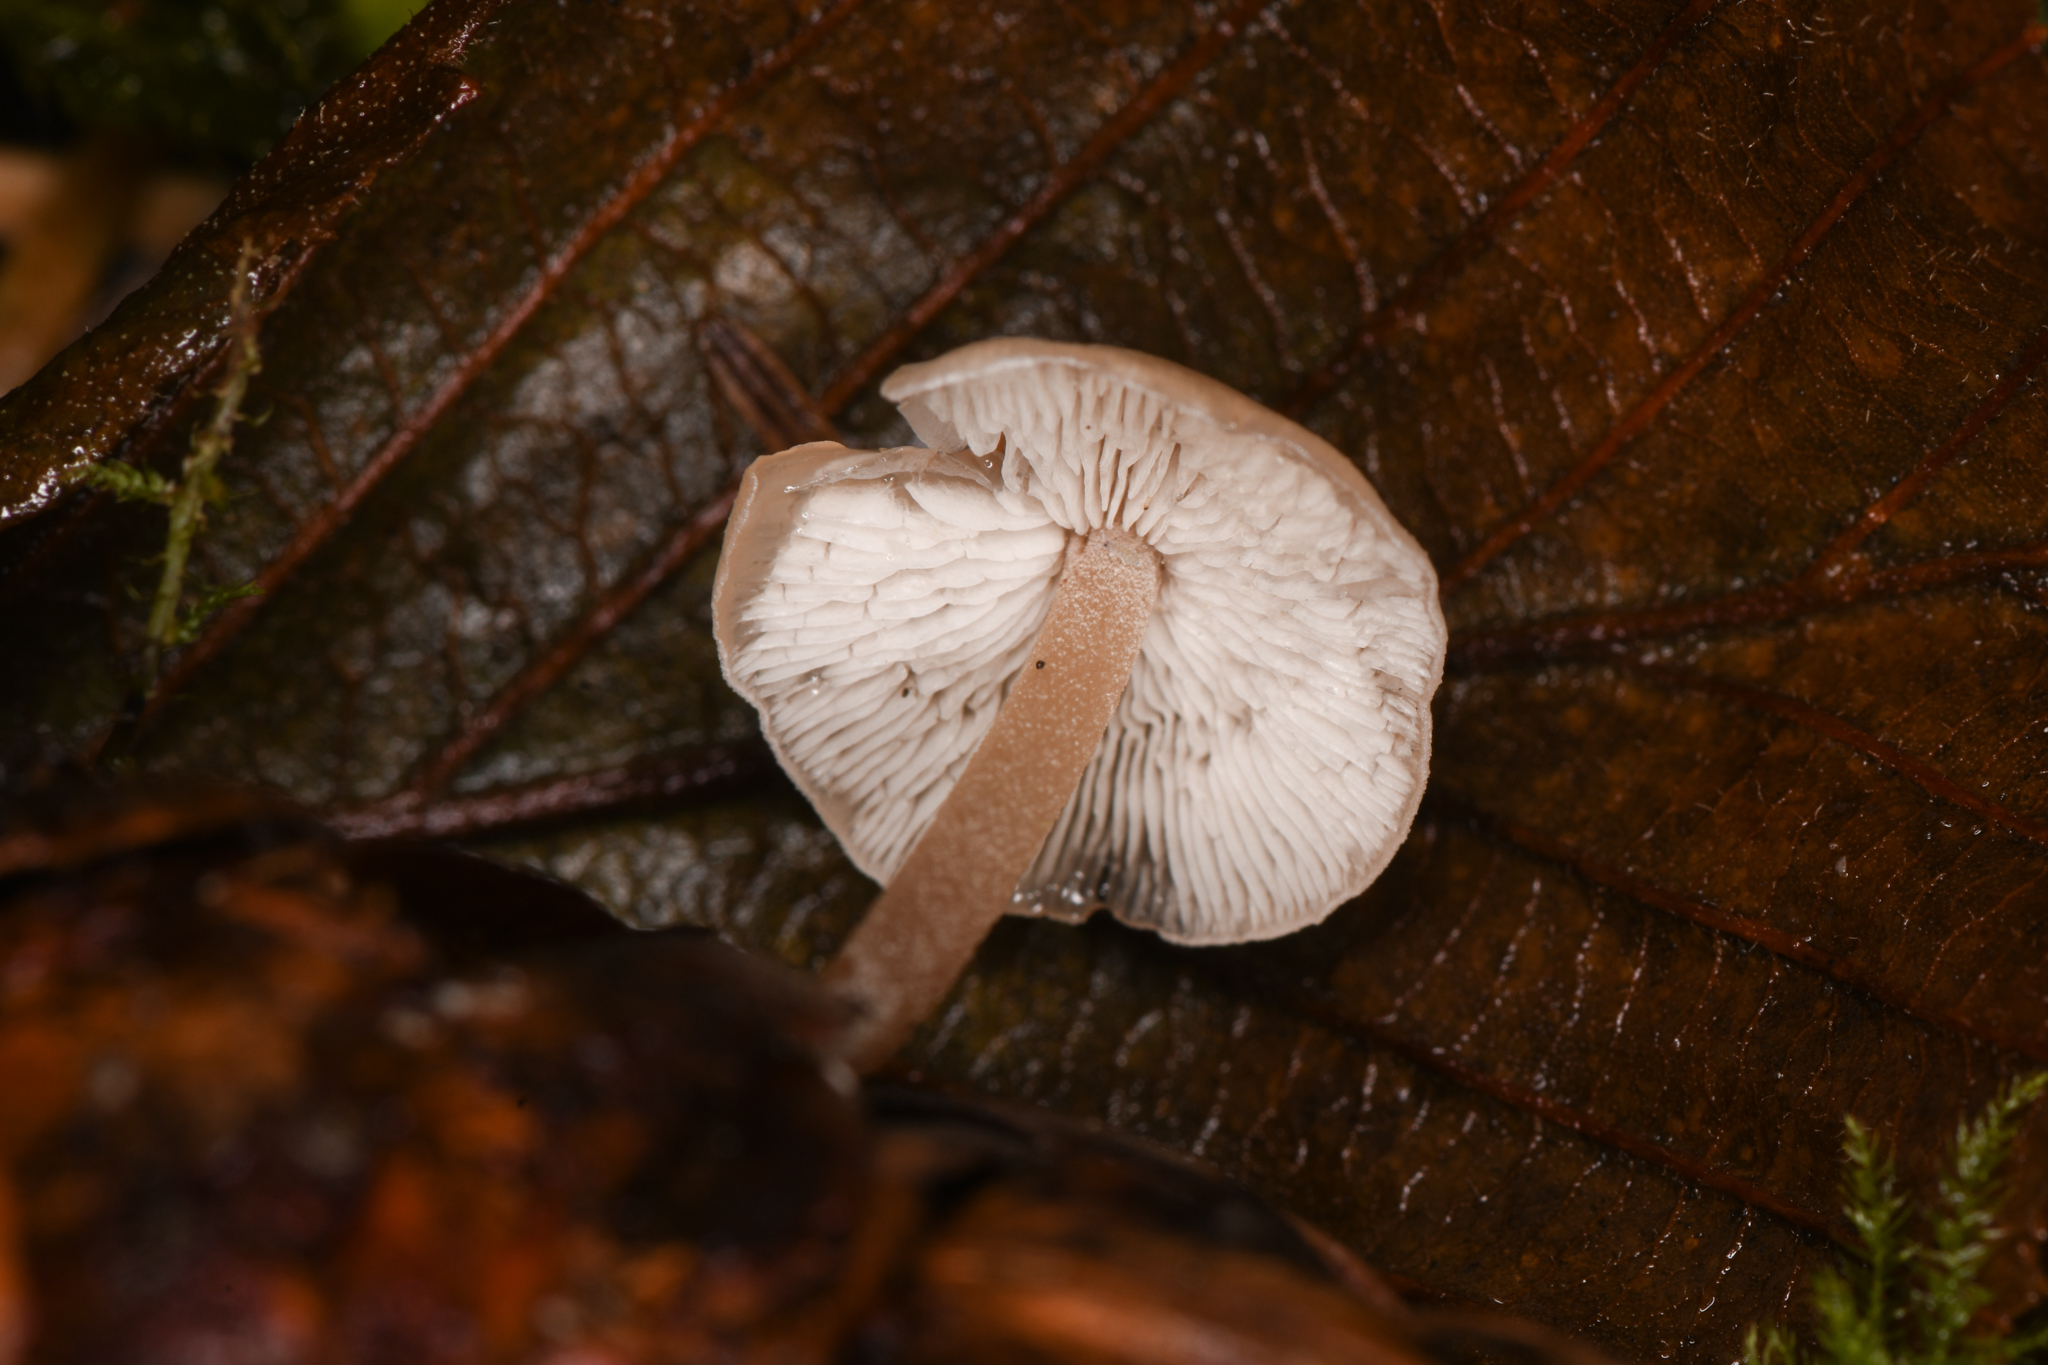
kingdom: Fungi
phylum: Basidiomycota
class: Agaricomycetes
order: Agaricales
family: Marasmiaceae
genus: Baeospora
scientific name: Baeospora myosura
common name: Conifercone cap
